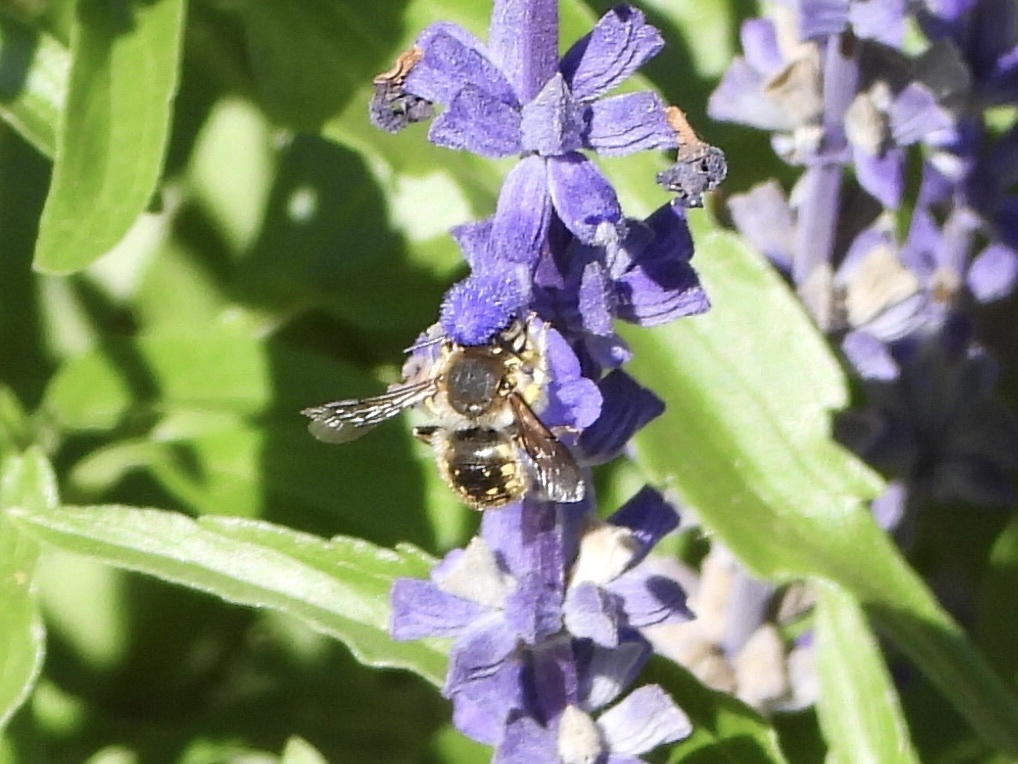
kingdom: Animalia
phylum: Arthropoda
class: Insecta
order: Hymenoptera
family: Megachilidae
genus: Anthidium
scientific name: Anthidium manicatum
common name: Wool carder bee
